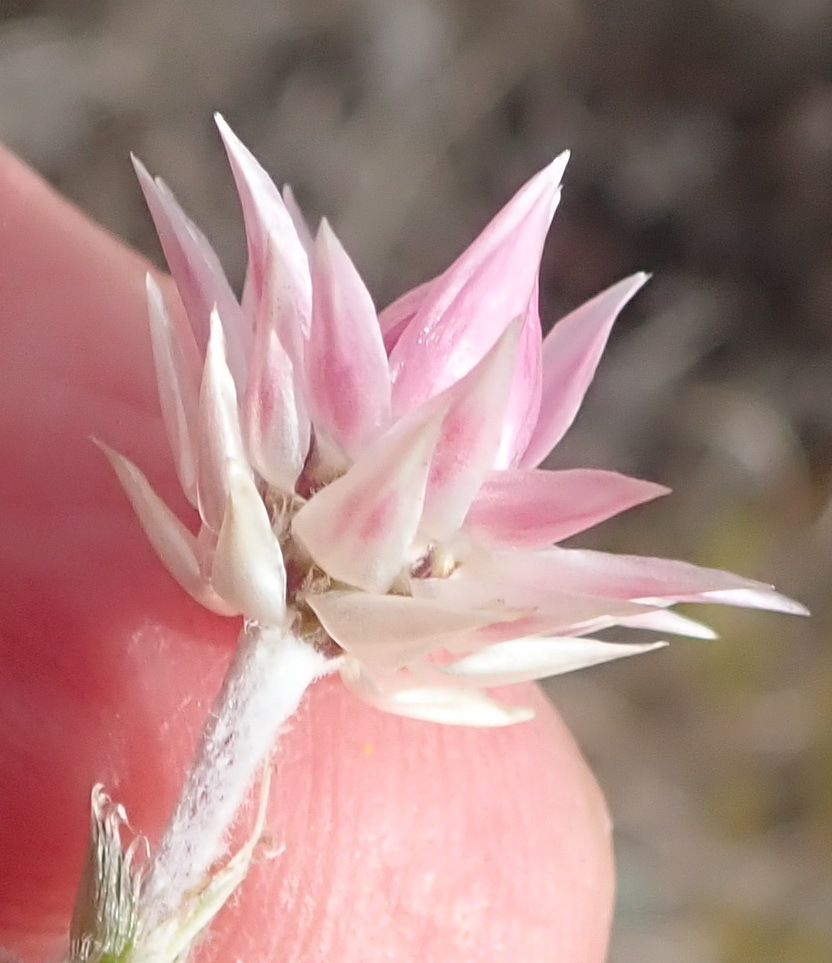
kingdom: Plantae
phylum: Tracheophyta
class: Magnoliopsida
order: Asterales
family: Asteraceae
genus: Achyranthemum
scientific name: Achyranthemum recurvatum
